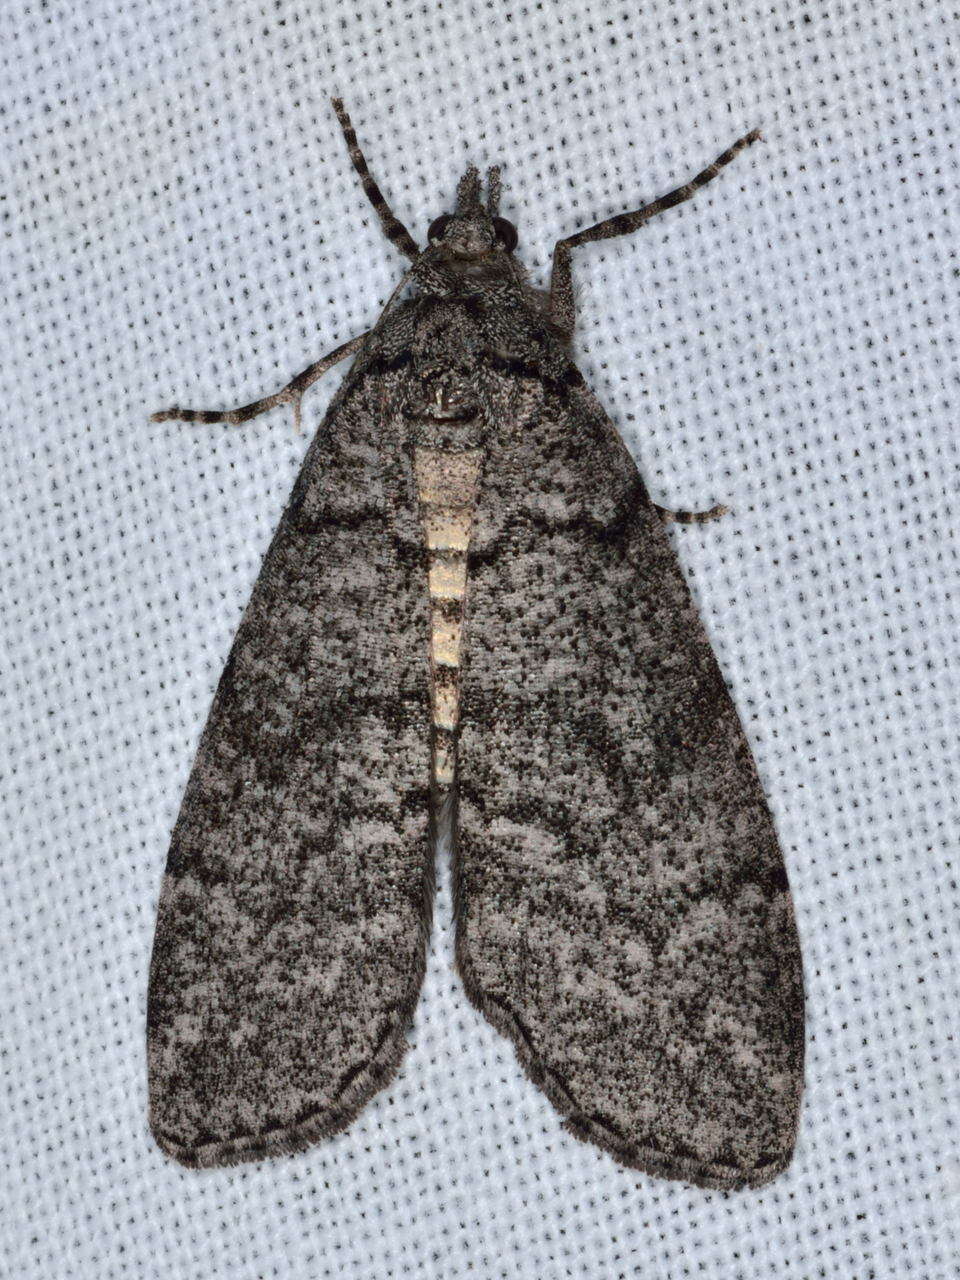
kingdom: Animalia
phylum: Arthropoda
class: Insecta
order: Lepidoptera
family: Geometridae
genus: Smyriodes
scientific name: Smyriodes trigramma
